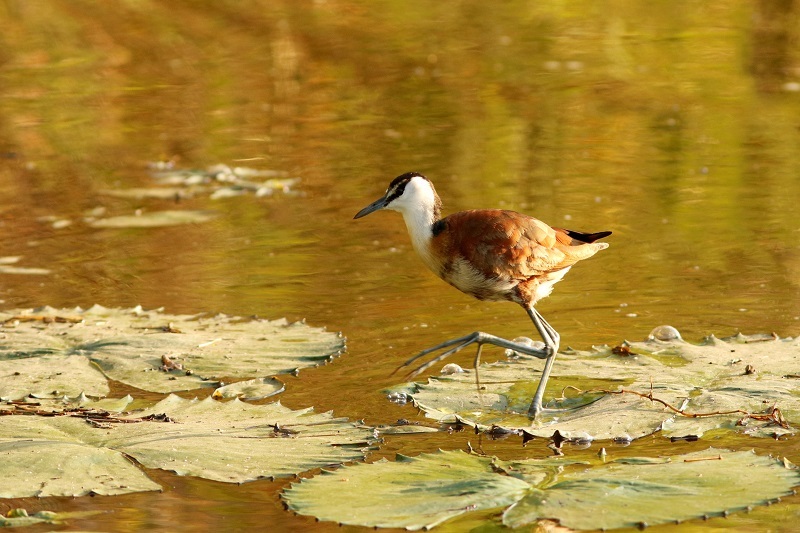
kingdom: Animalia
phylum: Chordata
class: Aves
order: Charadriiformes
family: Jacanidae
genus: Actophilornis
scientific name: Actophilornis africanus
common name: African jacana
